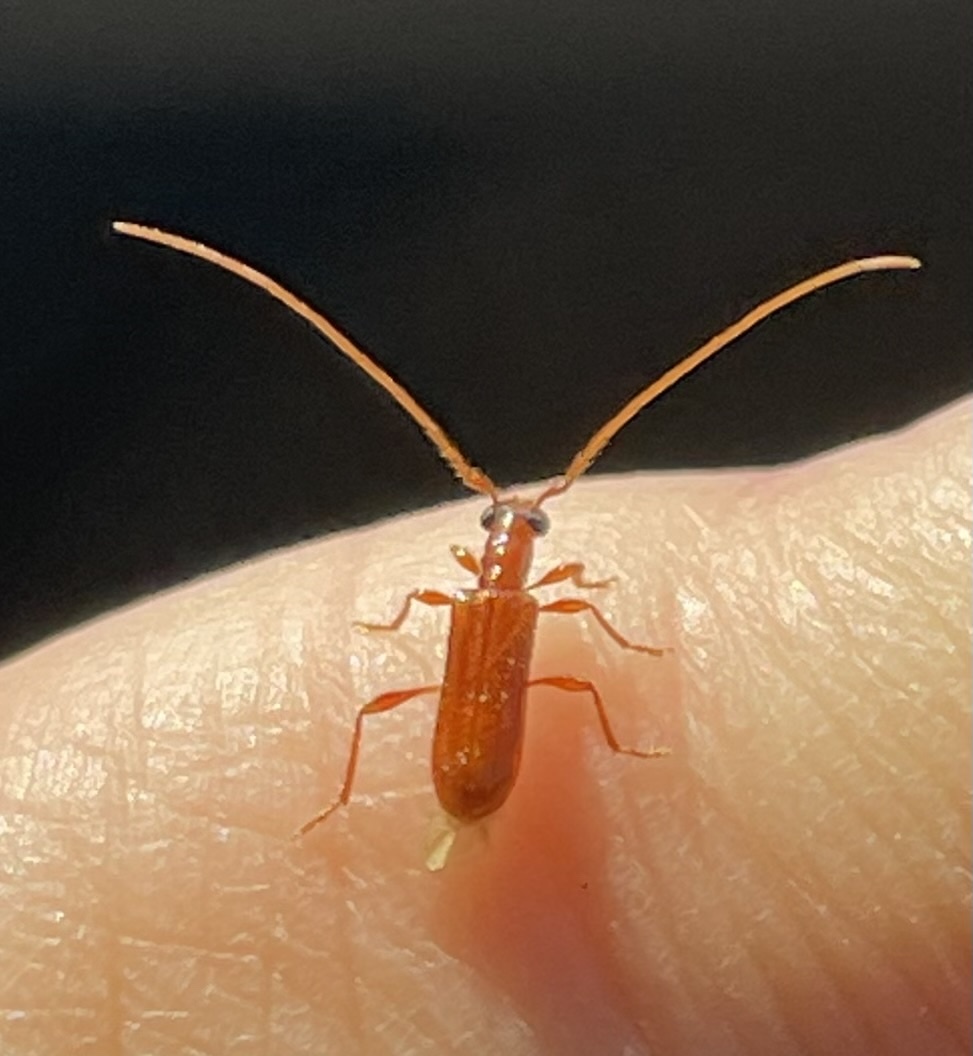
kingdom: Animalia
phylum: Arthropoda
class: Insecta
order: Coleoptera
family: Cerambycidae
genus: Obrium
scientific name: Obrium rufulum
